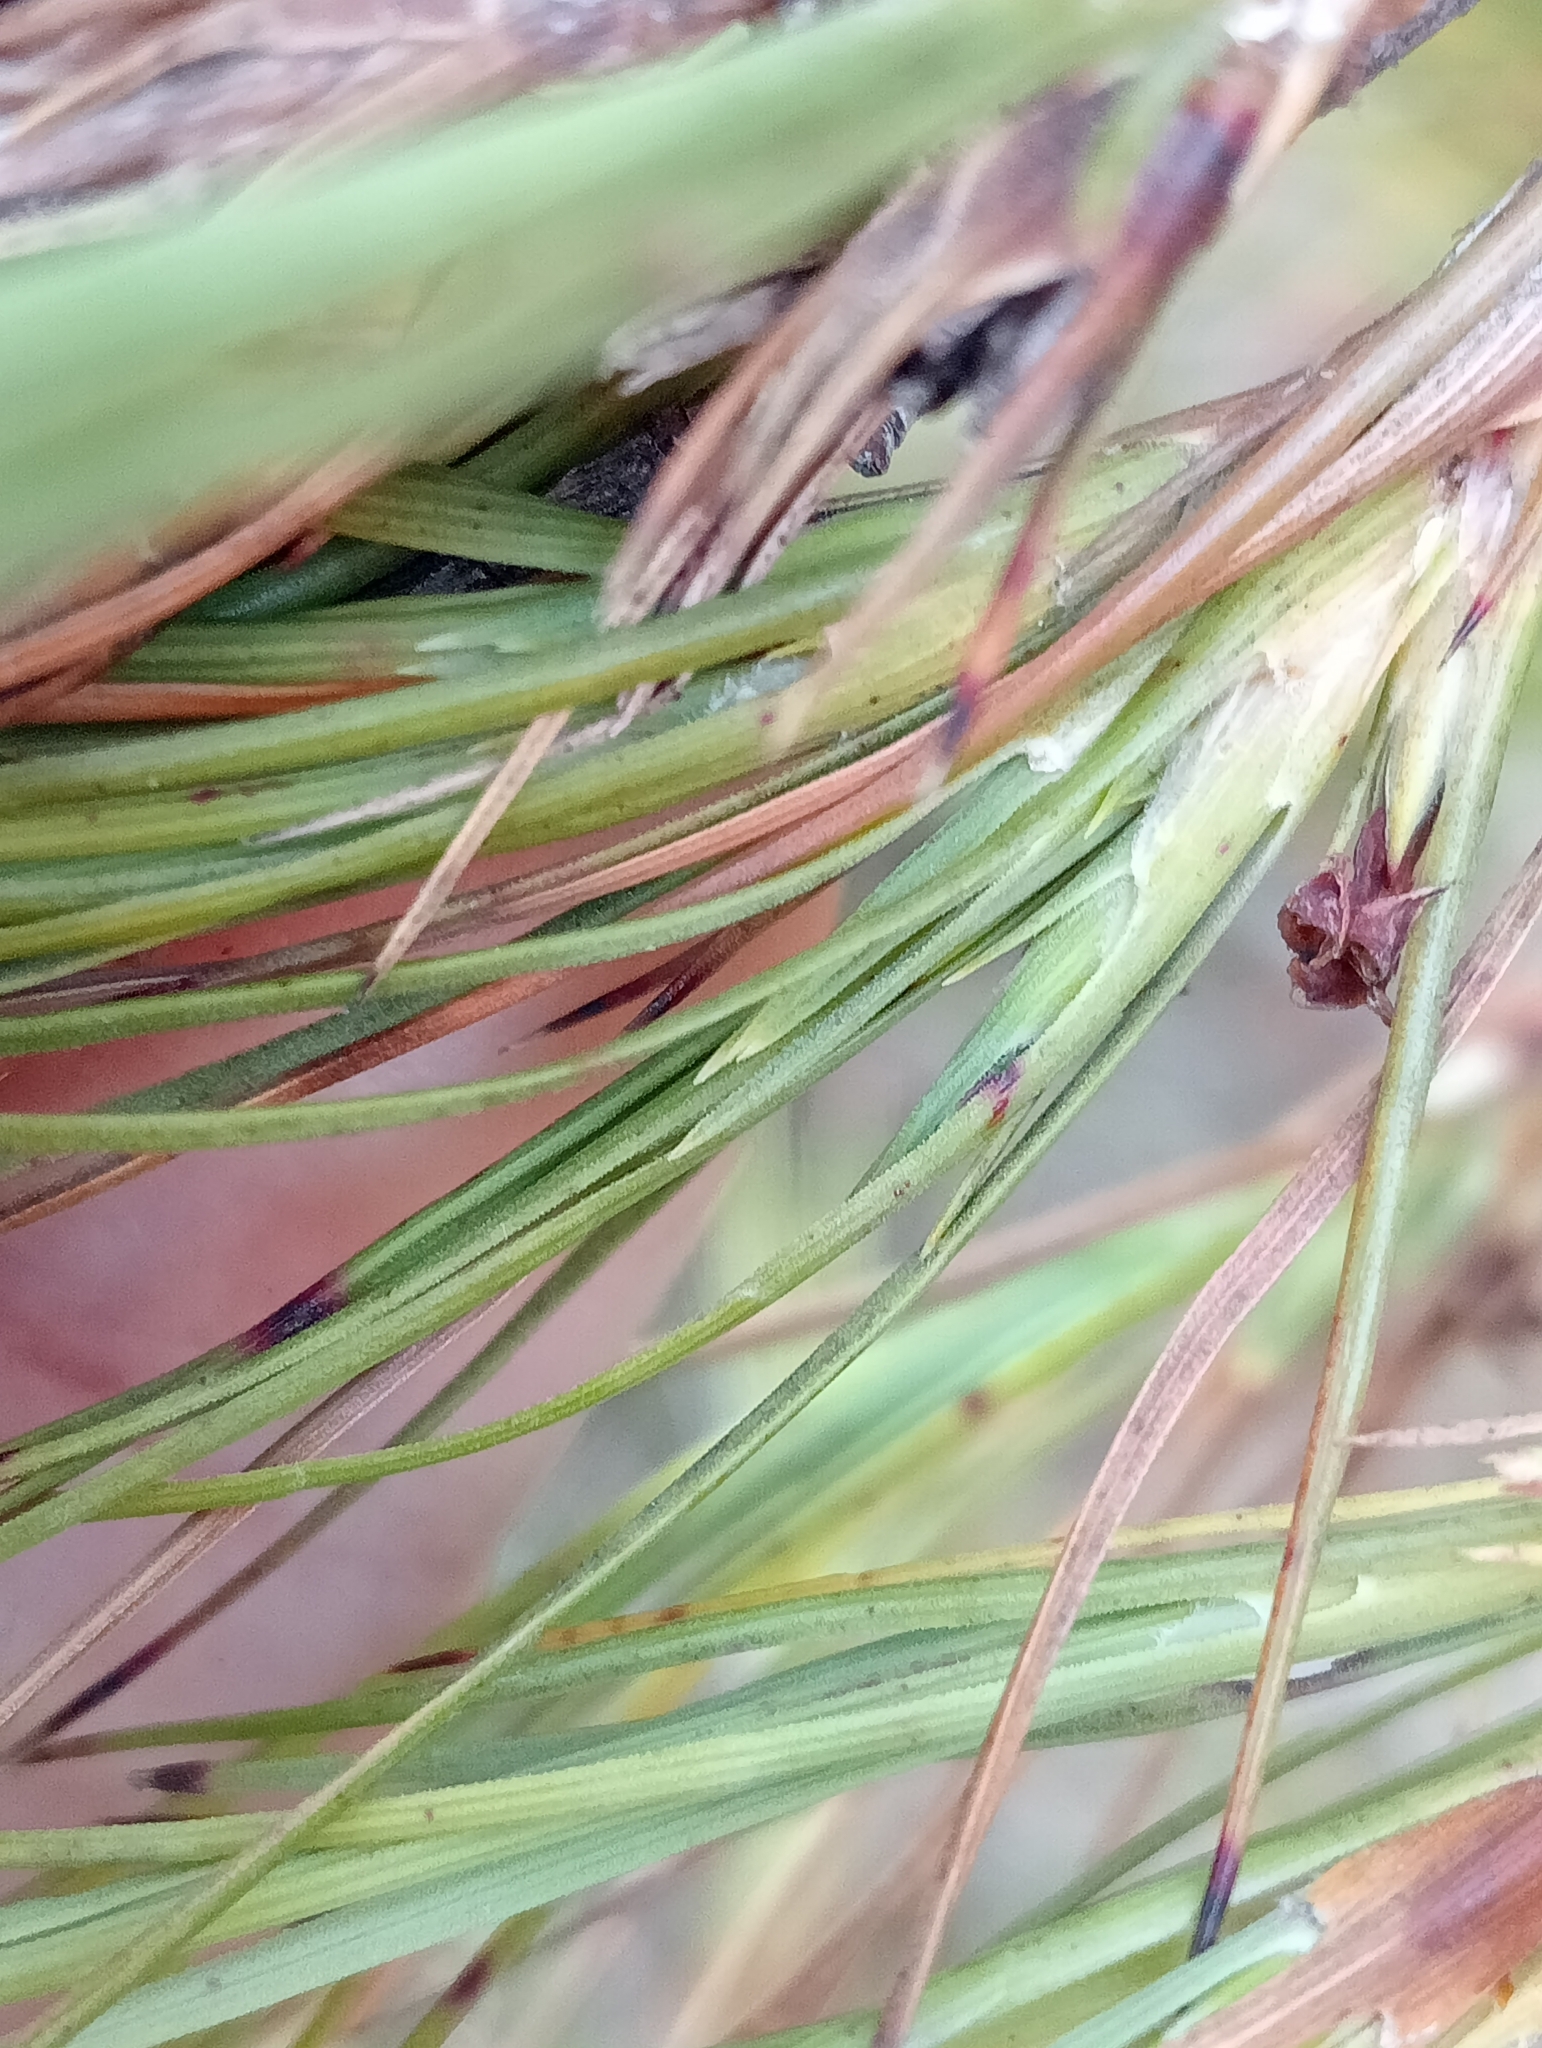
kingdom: Plantae
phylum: Tracheophyta
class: Magnoliopsida
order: Ericales
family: Ericaceae
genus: Dracophyllum
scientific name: Dracophyllum acerosum
